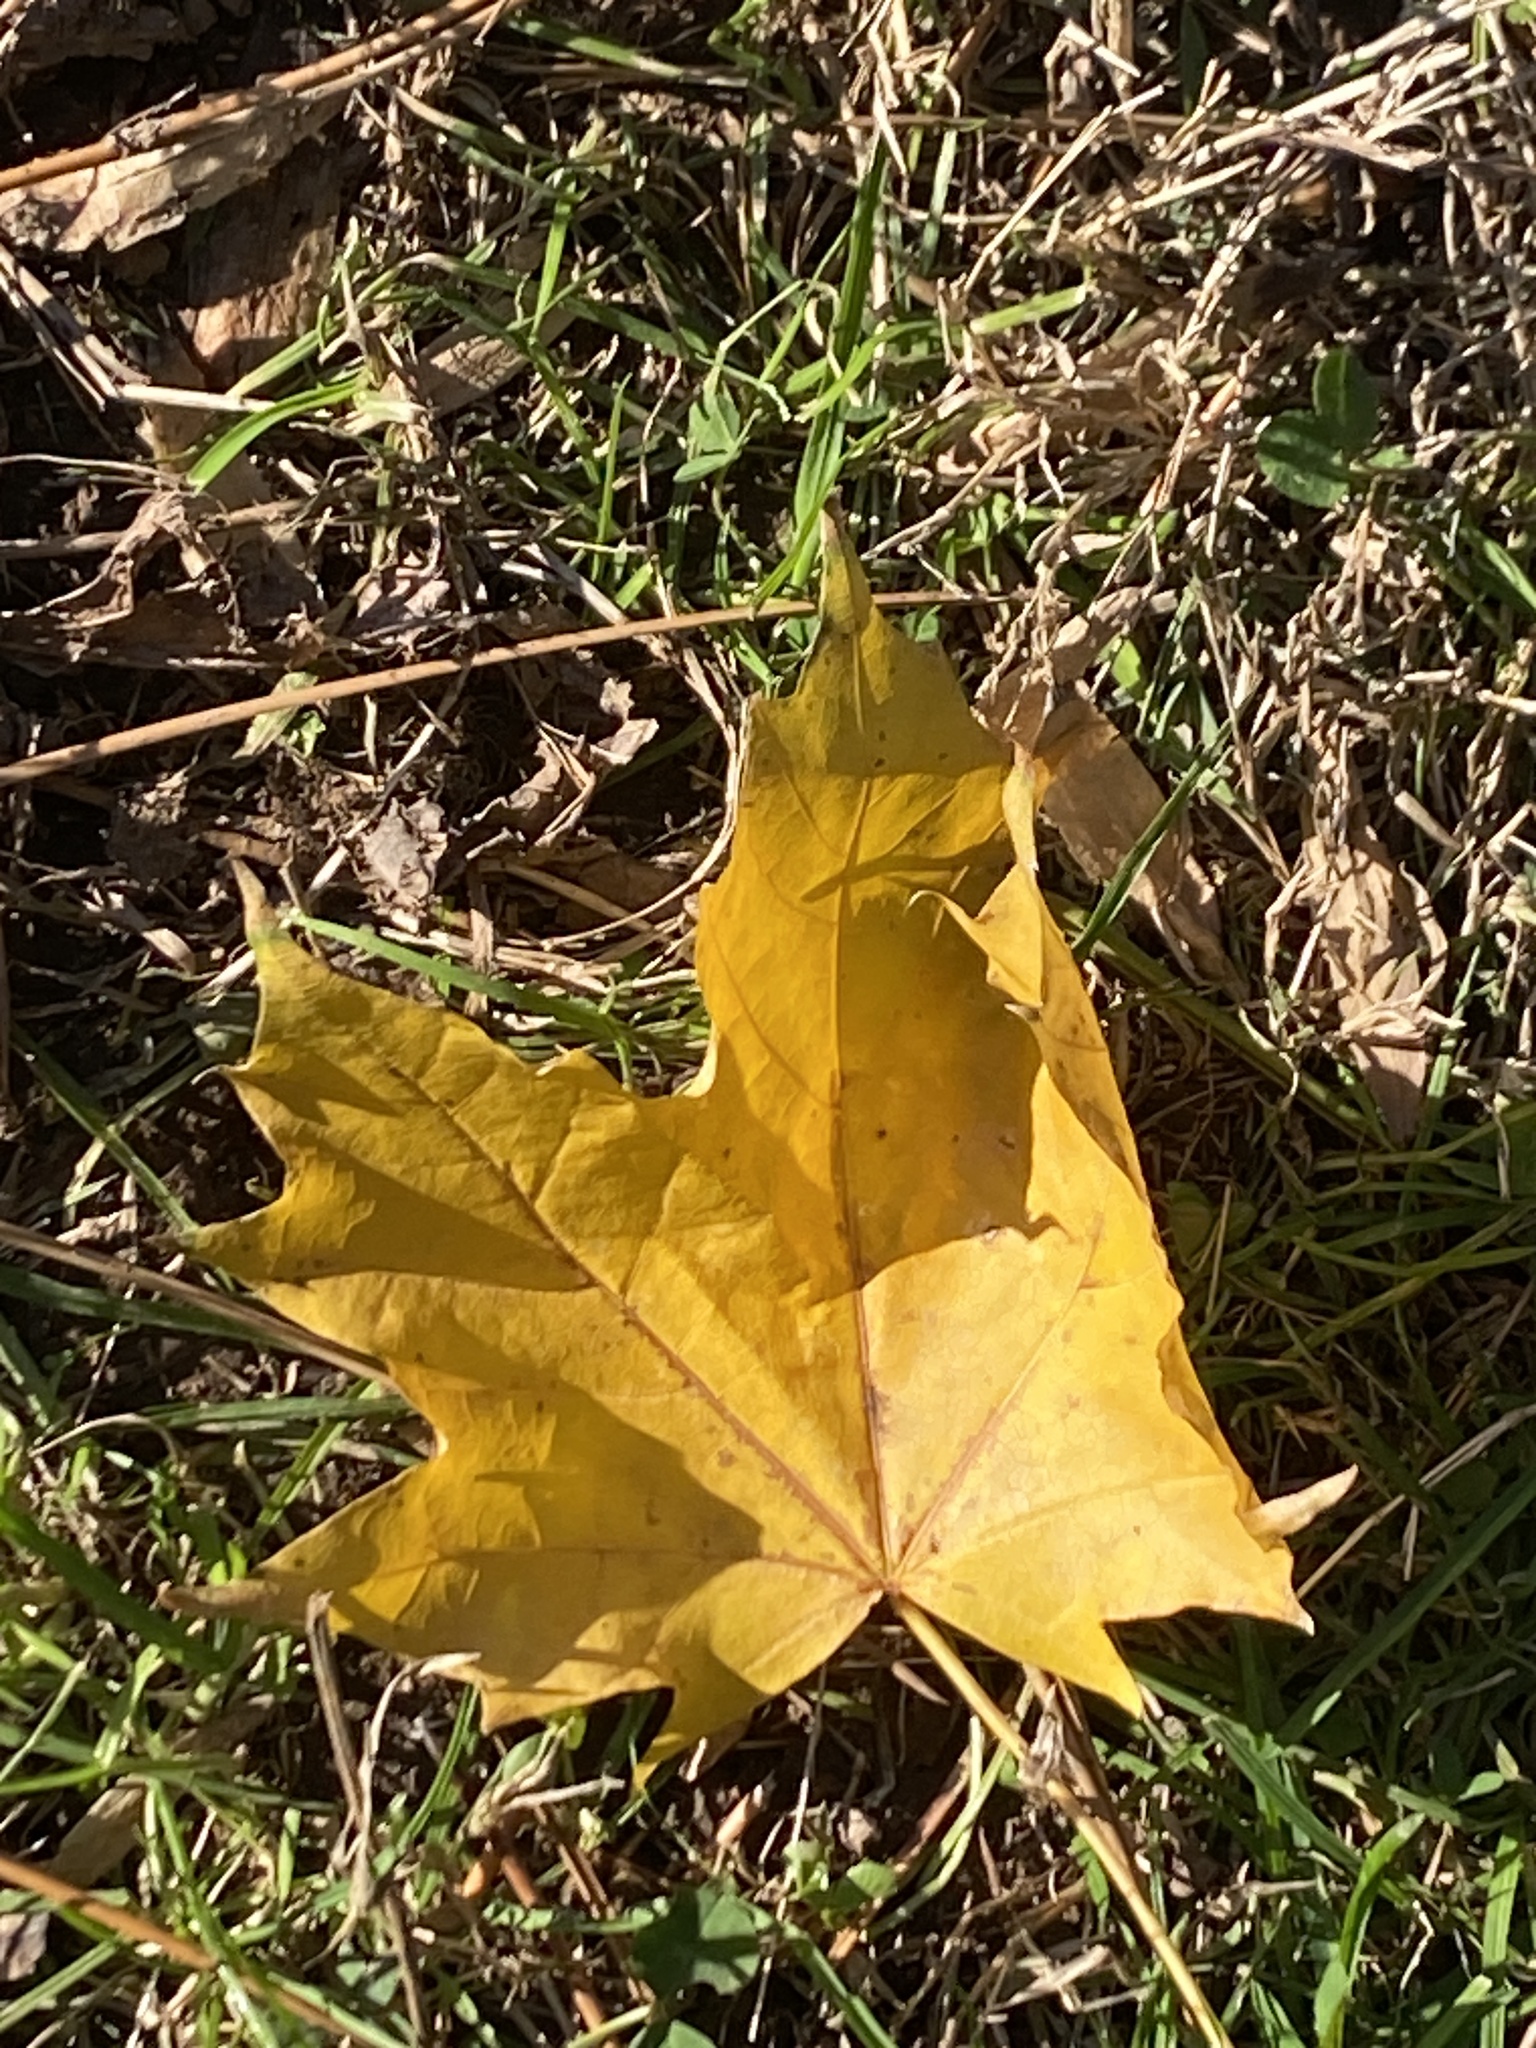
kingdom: Plantae
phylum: Tracheophyta
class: Magnoliopsida
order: Sapindales
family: Sapindaceae
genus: Acer
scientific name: Acer platanoides
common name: Norway maple
